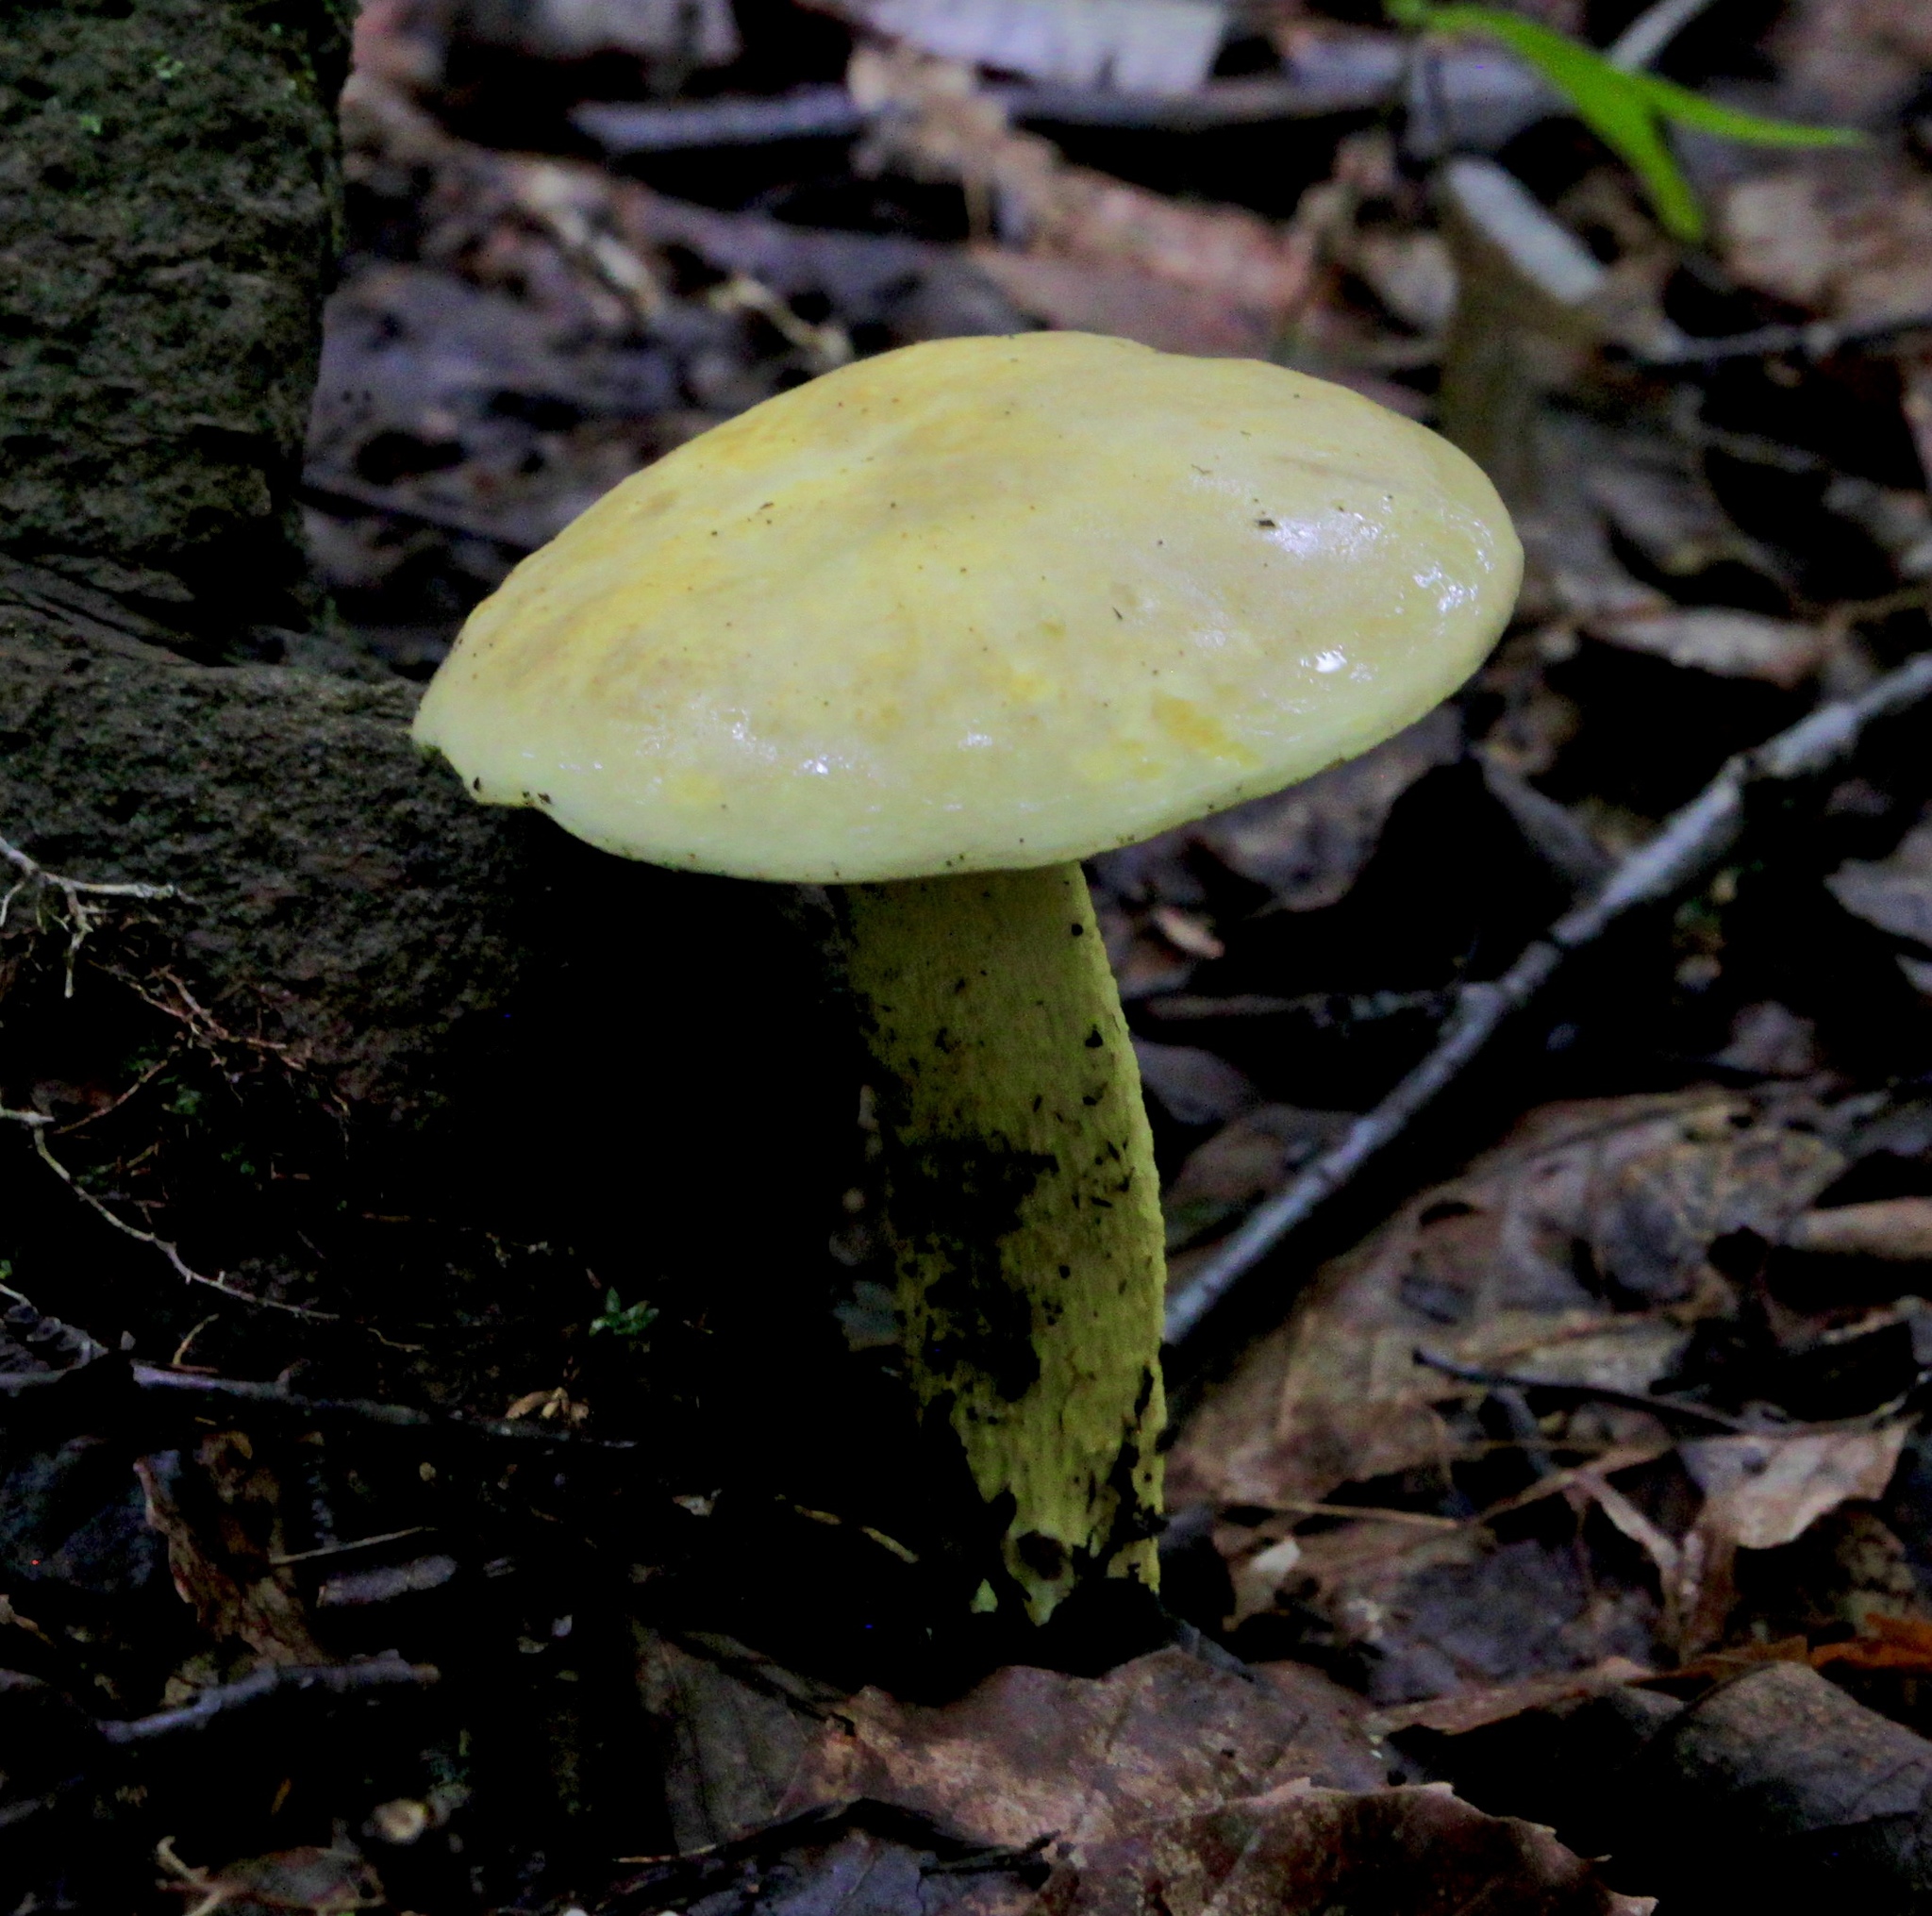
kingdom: Fungi
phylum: Basidiomycota
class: Agaricomycetes
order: Boletales
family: Boletaceae
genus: Retiboletus
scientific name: Retiboletus ornatipes
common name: Ornate-stalked bolete
